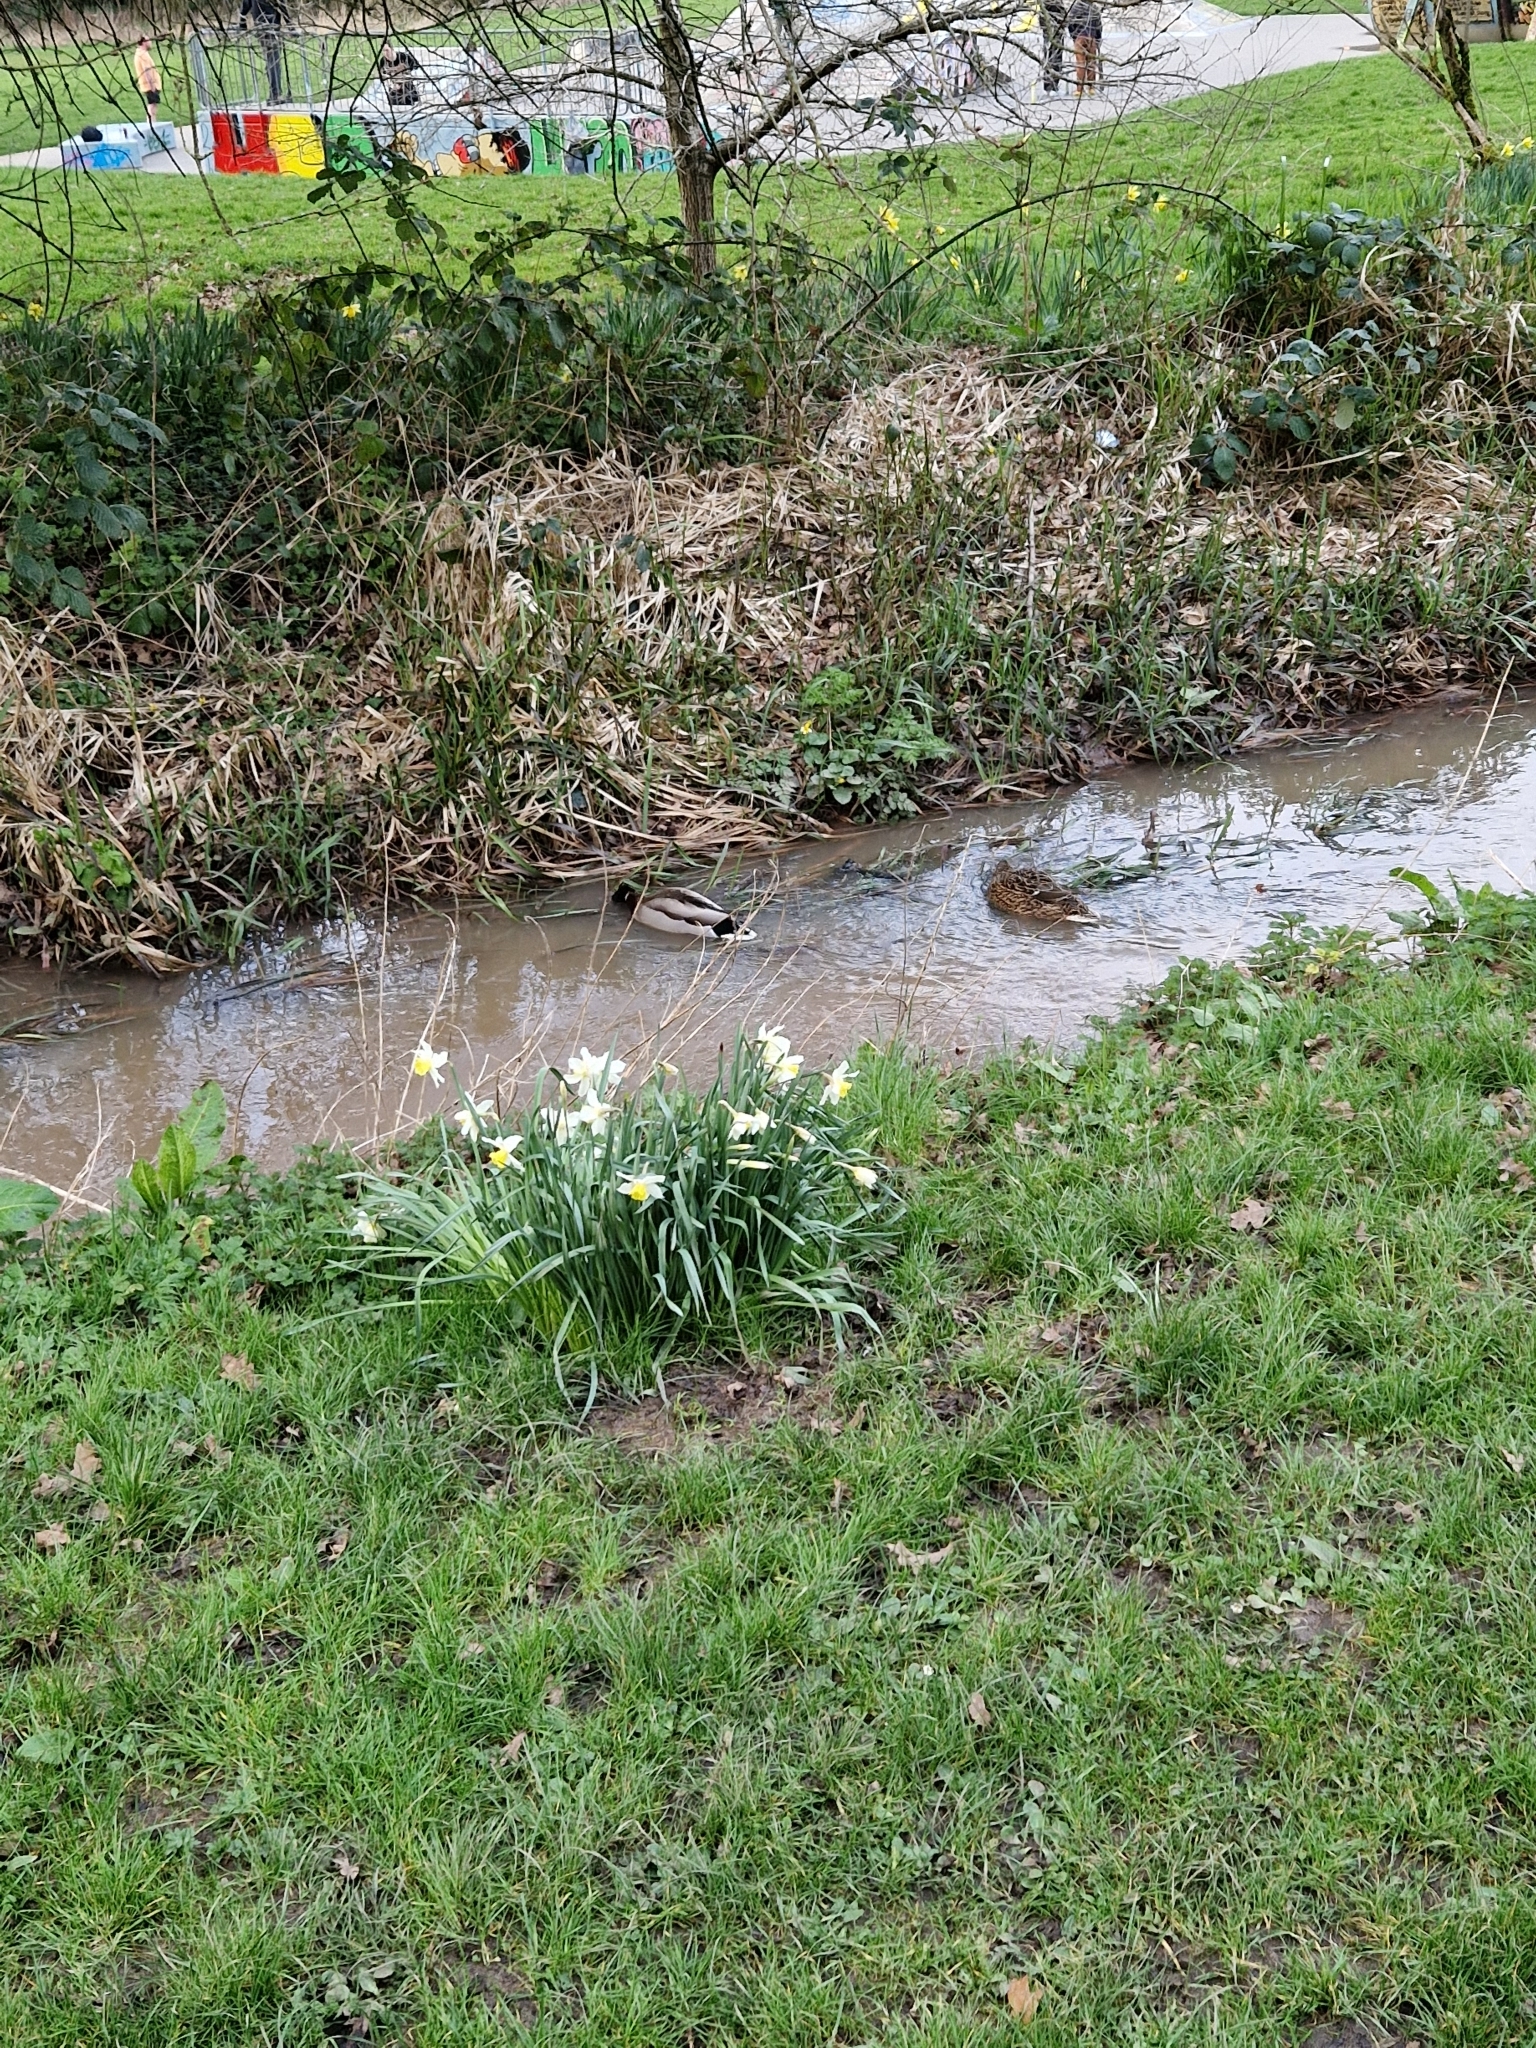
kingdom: Animalia
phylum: Chordata
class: Aves
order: Anseriformes
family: Anatidae
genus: Anas
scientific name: Anas platyrhynchos
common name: Mallard
